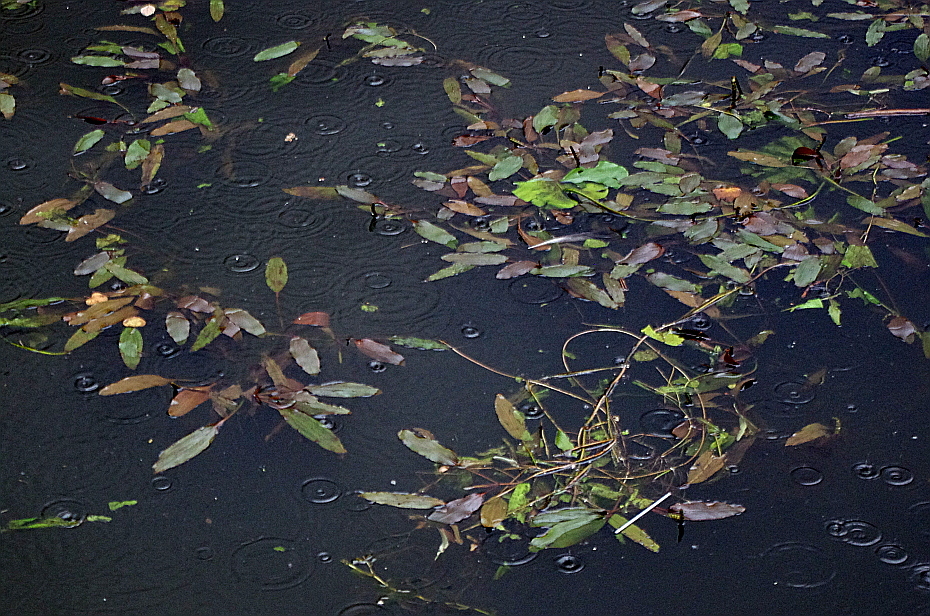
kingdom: Plantae
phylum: Tracheophyta
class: Liliopsida
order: Alismatales
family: Potamogetonaceae
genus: Potamogeton
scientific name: Potamogeton nodosus
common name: Loddon pondweed
